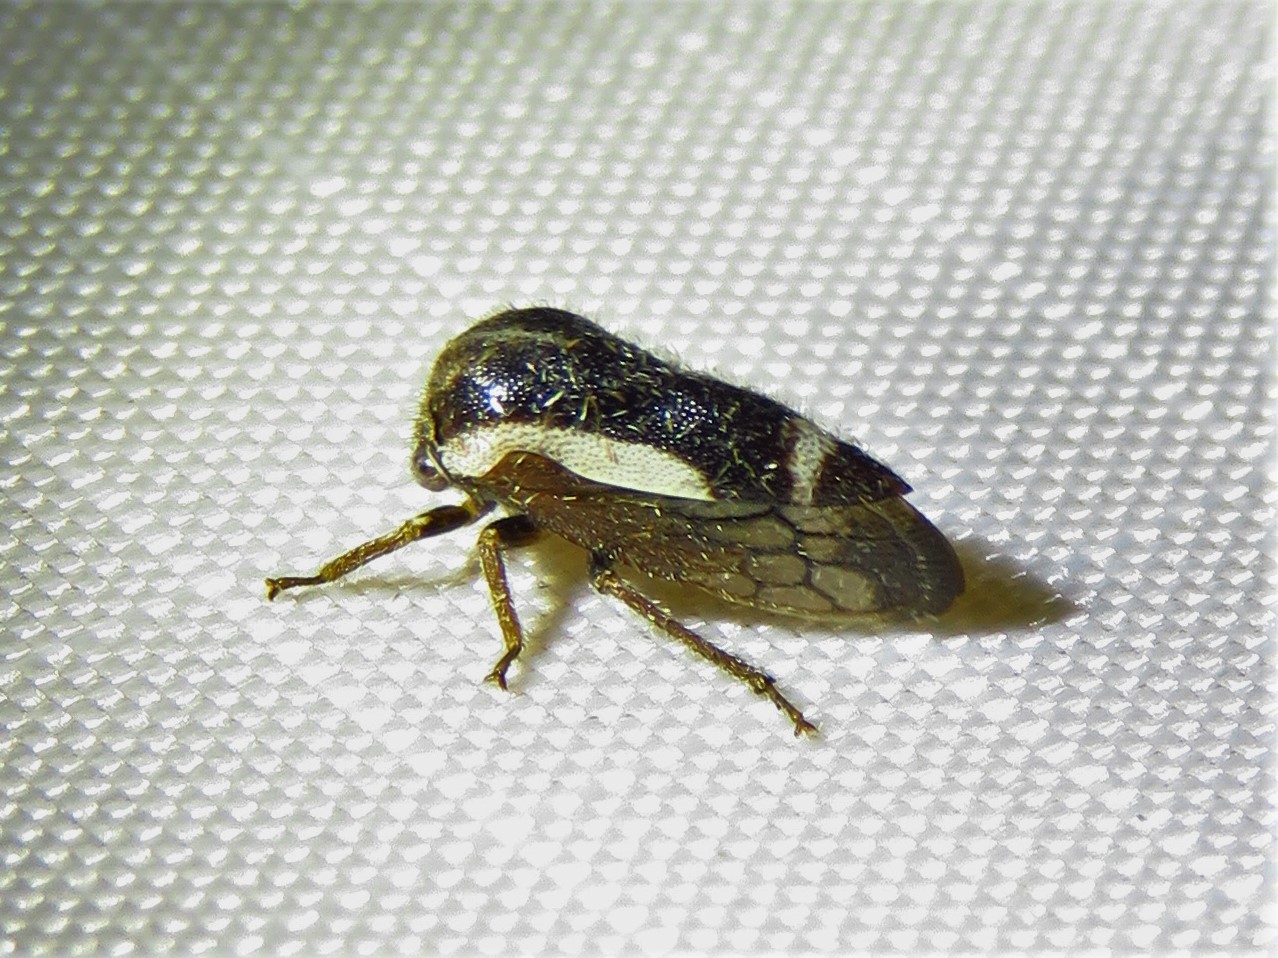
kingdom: Animalia
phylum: Arthropoda
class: Insecta
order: Hemiptera
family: Membracidae
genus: Ophiderma
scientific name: Ophiderma flavicephala
